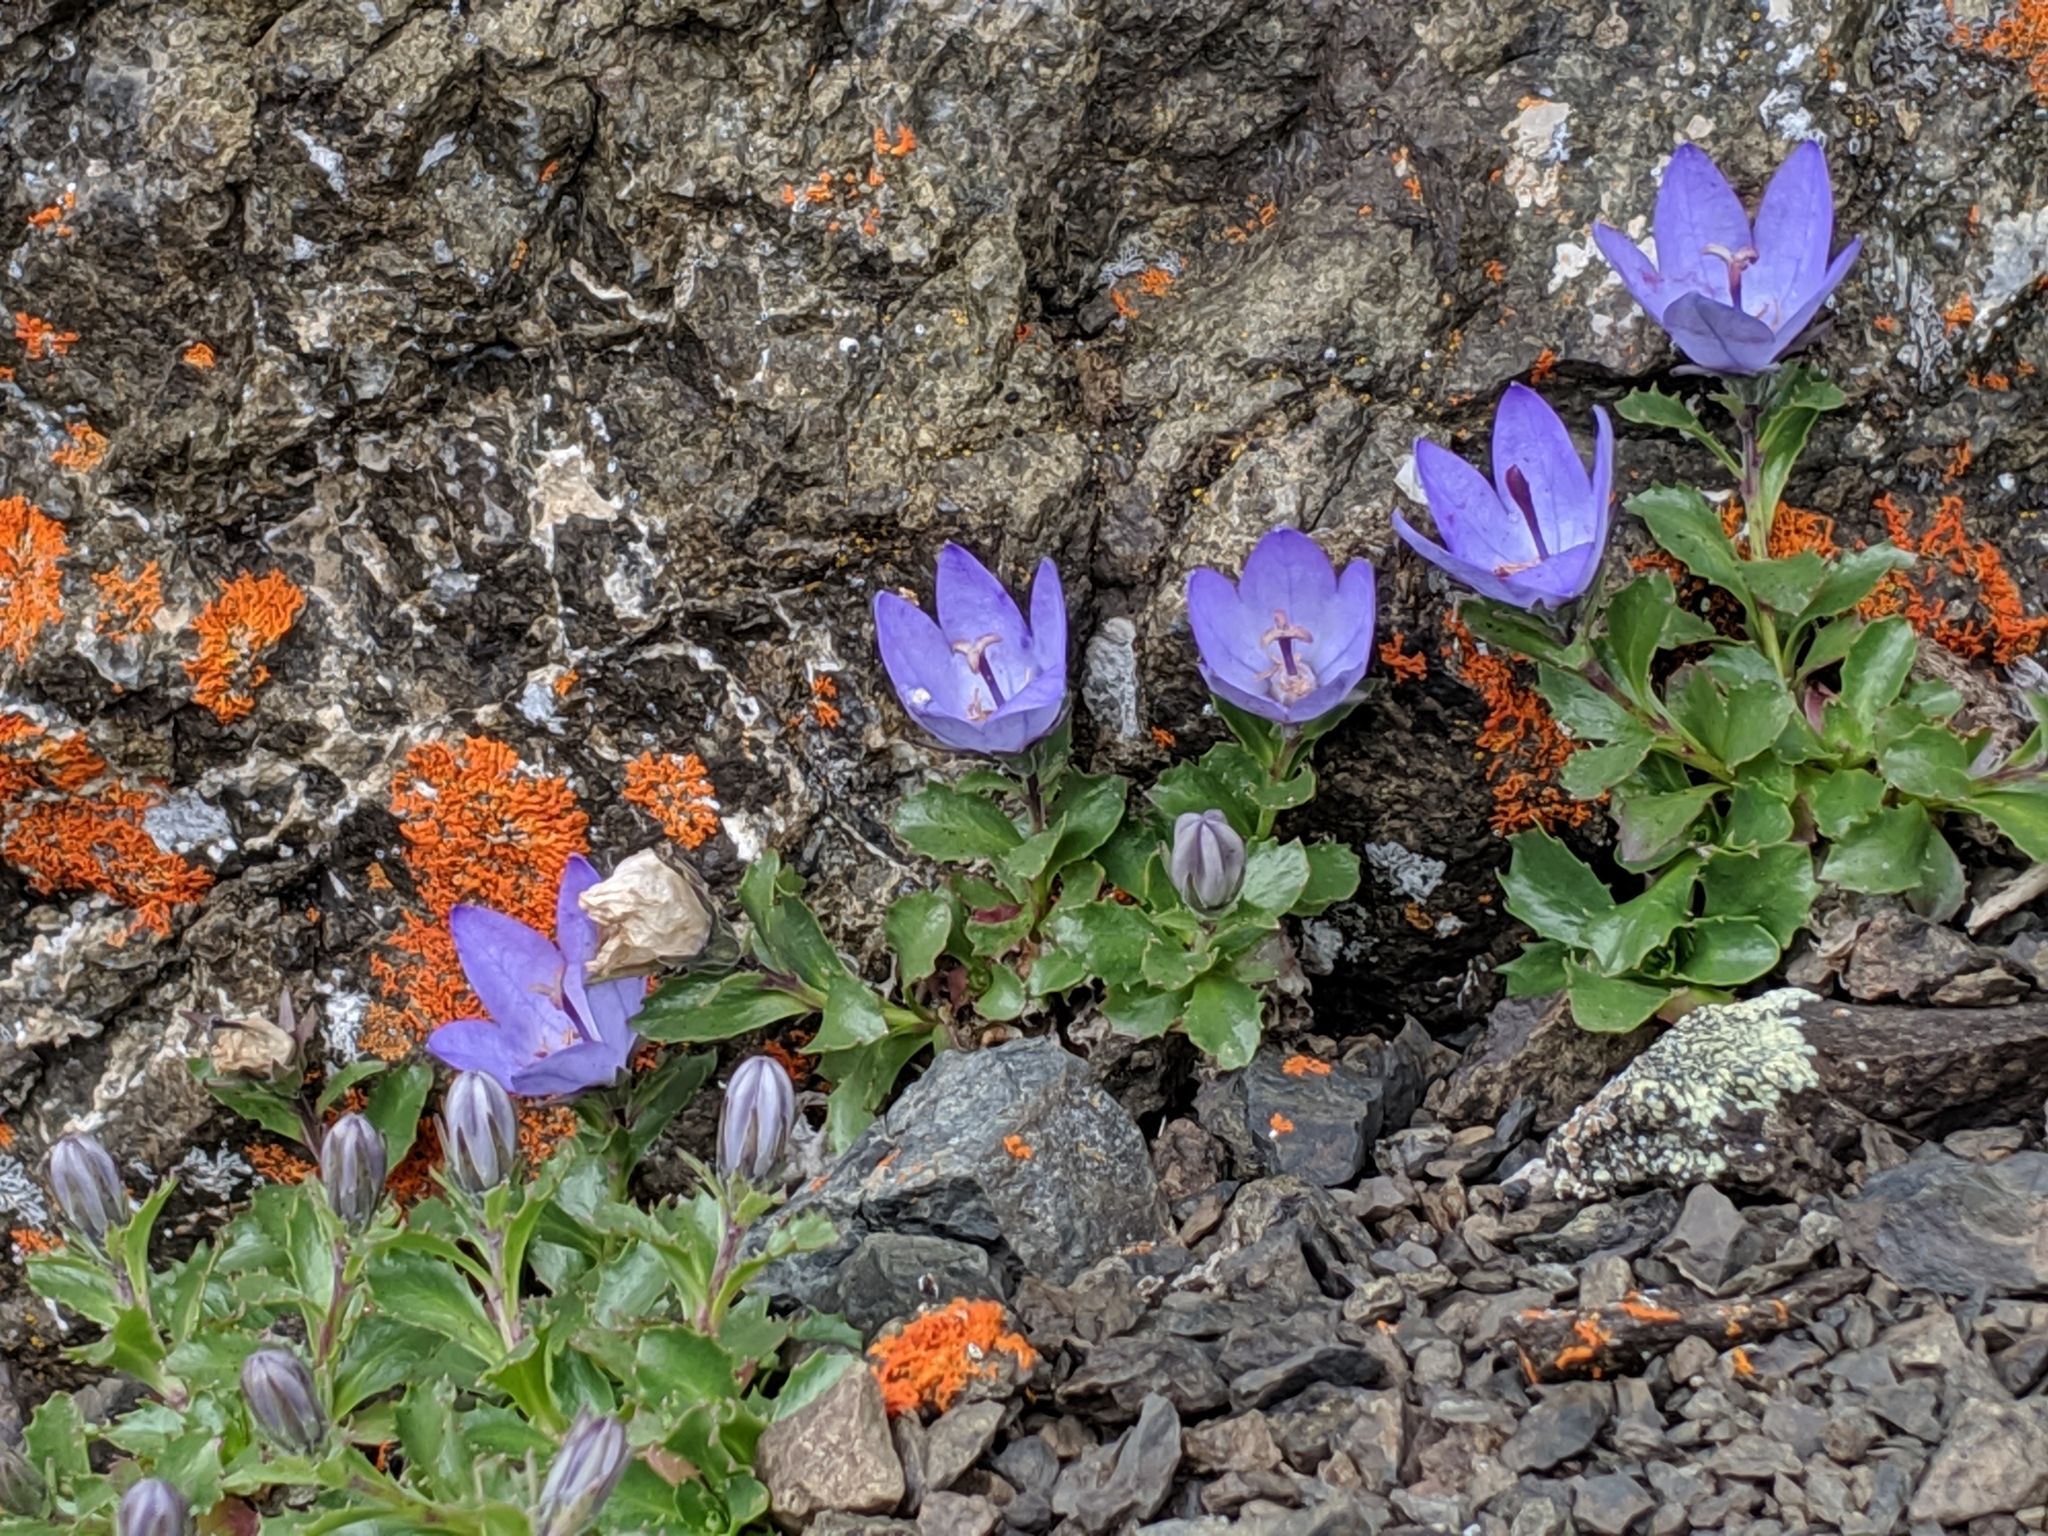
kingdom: Plantae
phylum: Tracheophyta
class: Magnoliopsida
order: Asterales
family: Campanulaceae
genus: Campanula
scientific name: Campanula piperi
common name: Olympic bellflower
